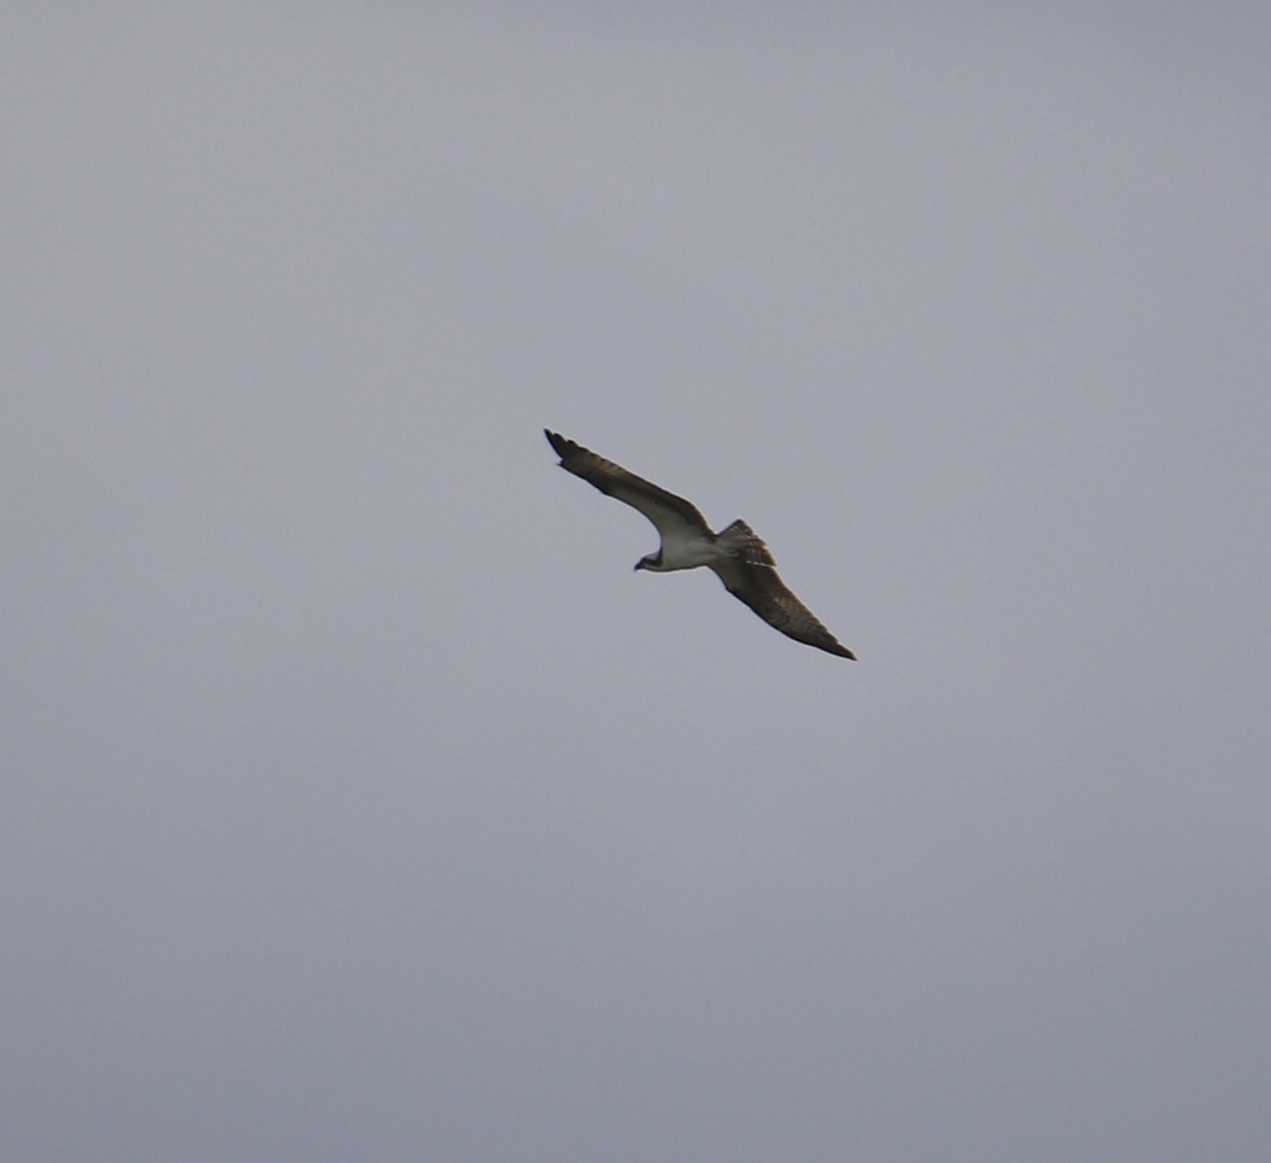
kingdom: Animalia
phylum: Chordata
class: Aves
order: Accipitriformes
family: Pandionidae
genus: Pandion
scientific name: Pandion haliaetus
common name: Osprey
